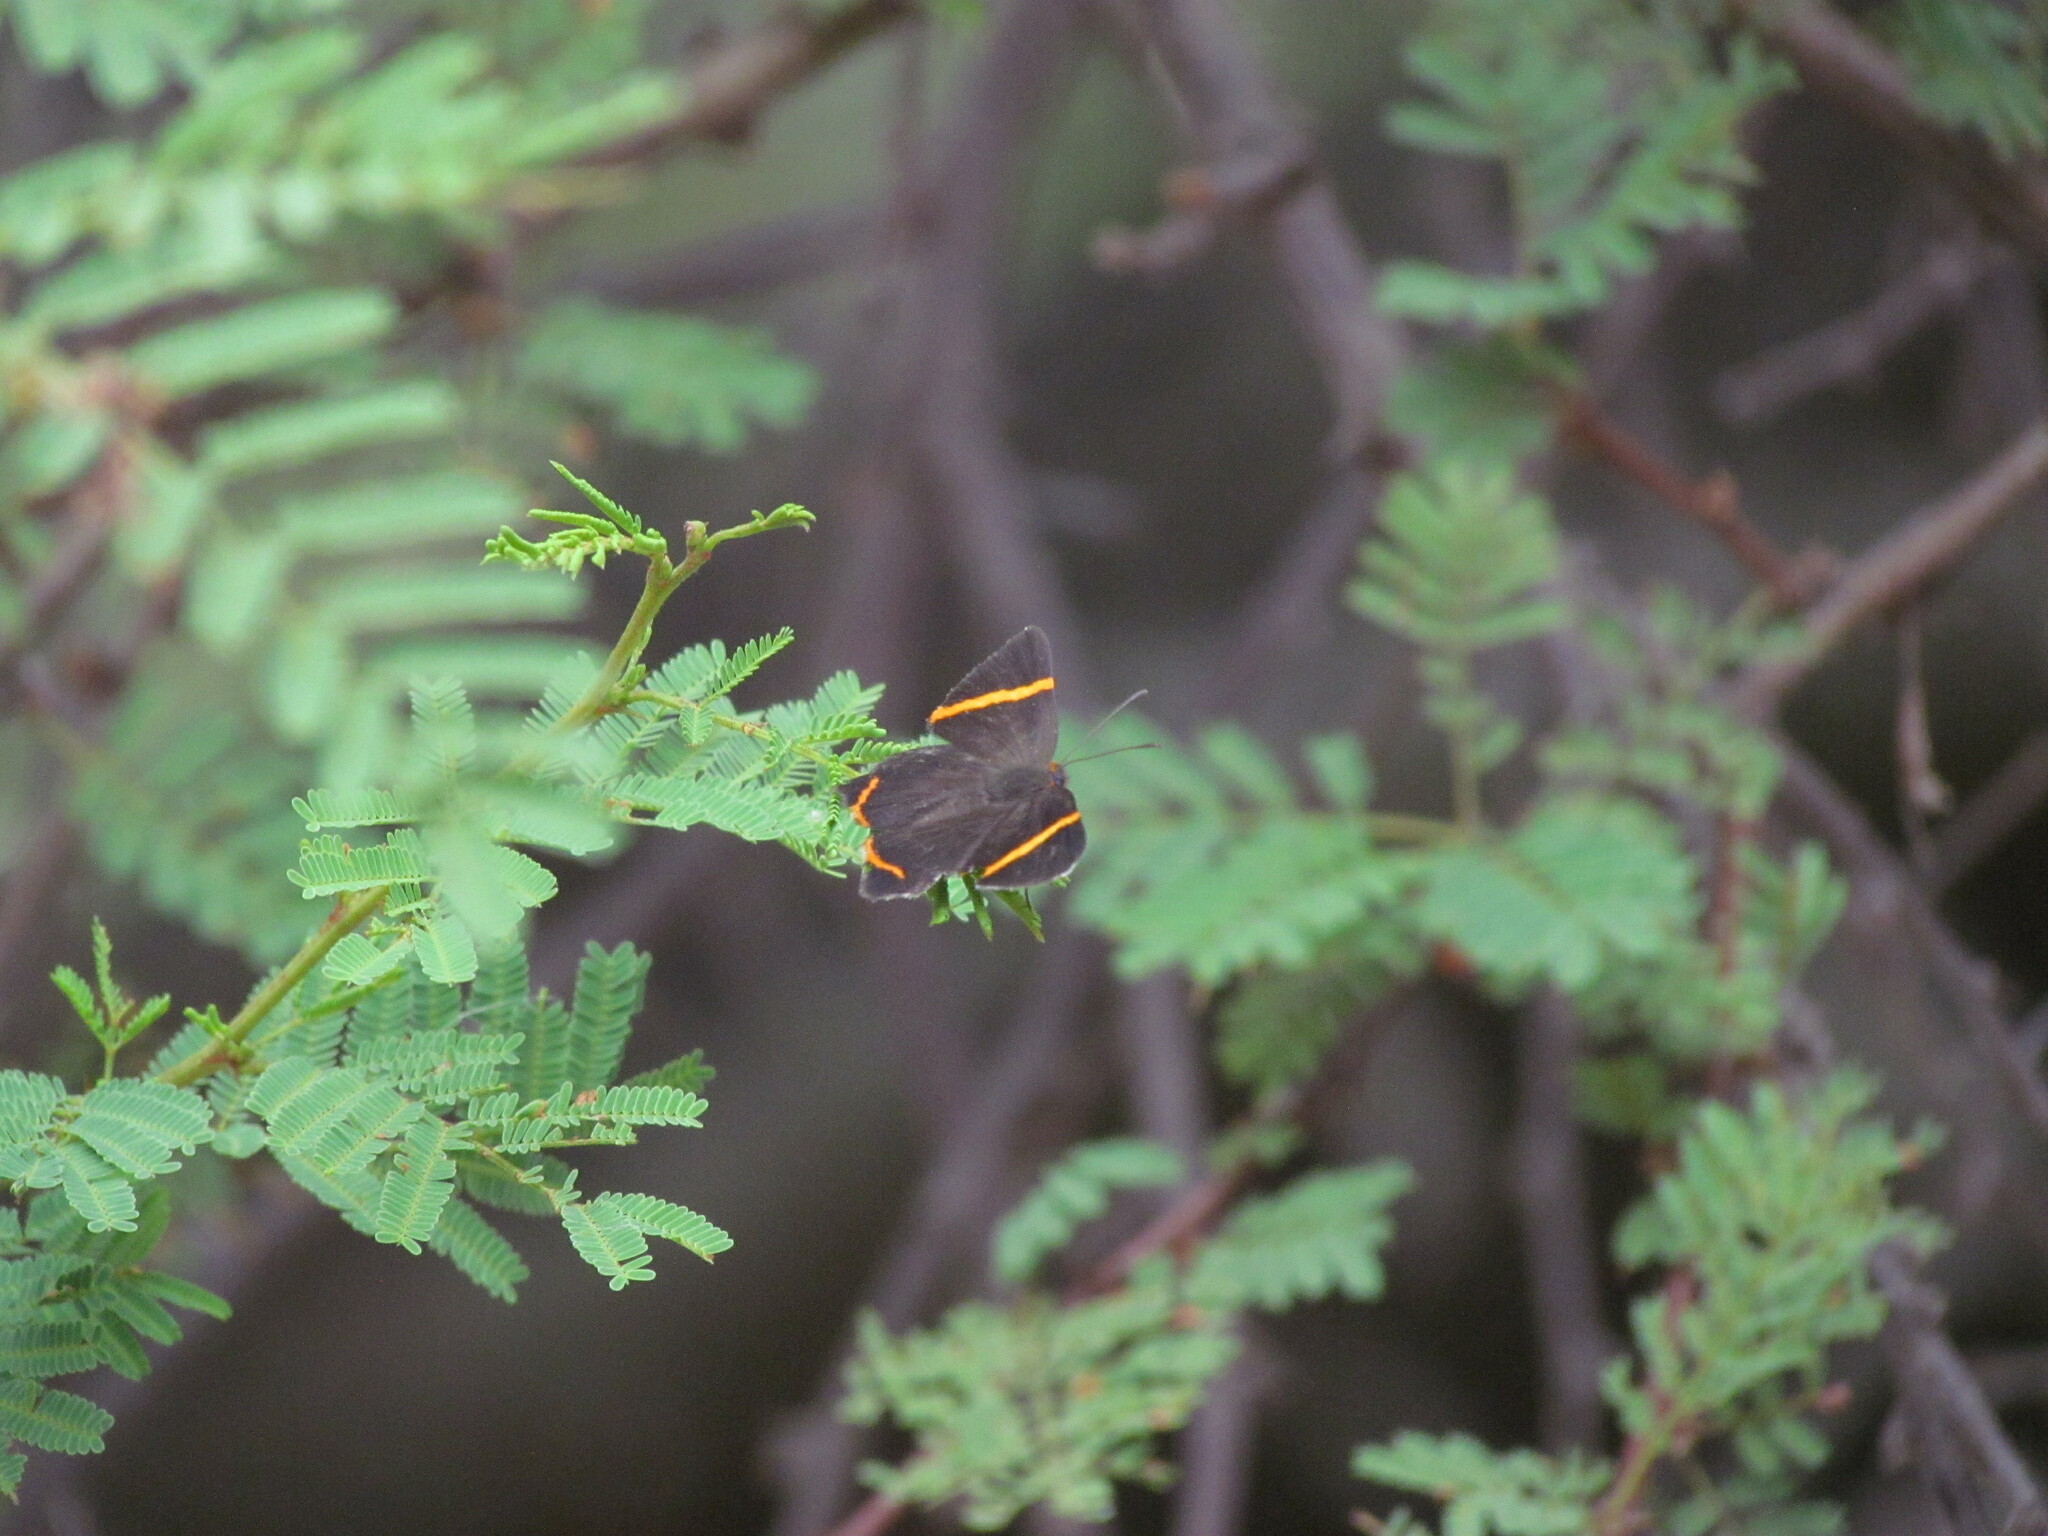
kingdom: Animalia
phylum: Arthropoda
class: Insecta
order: Lepidoptera
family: Riodinidae
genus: Riodina
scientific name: Riodina lysippoides
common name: Little dancer metalmark
